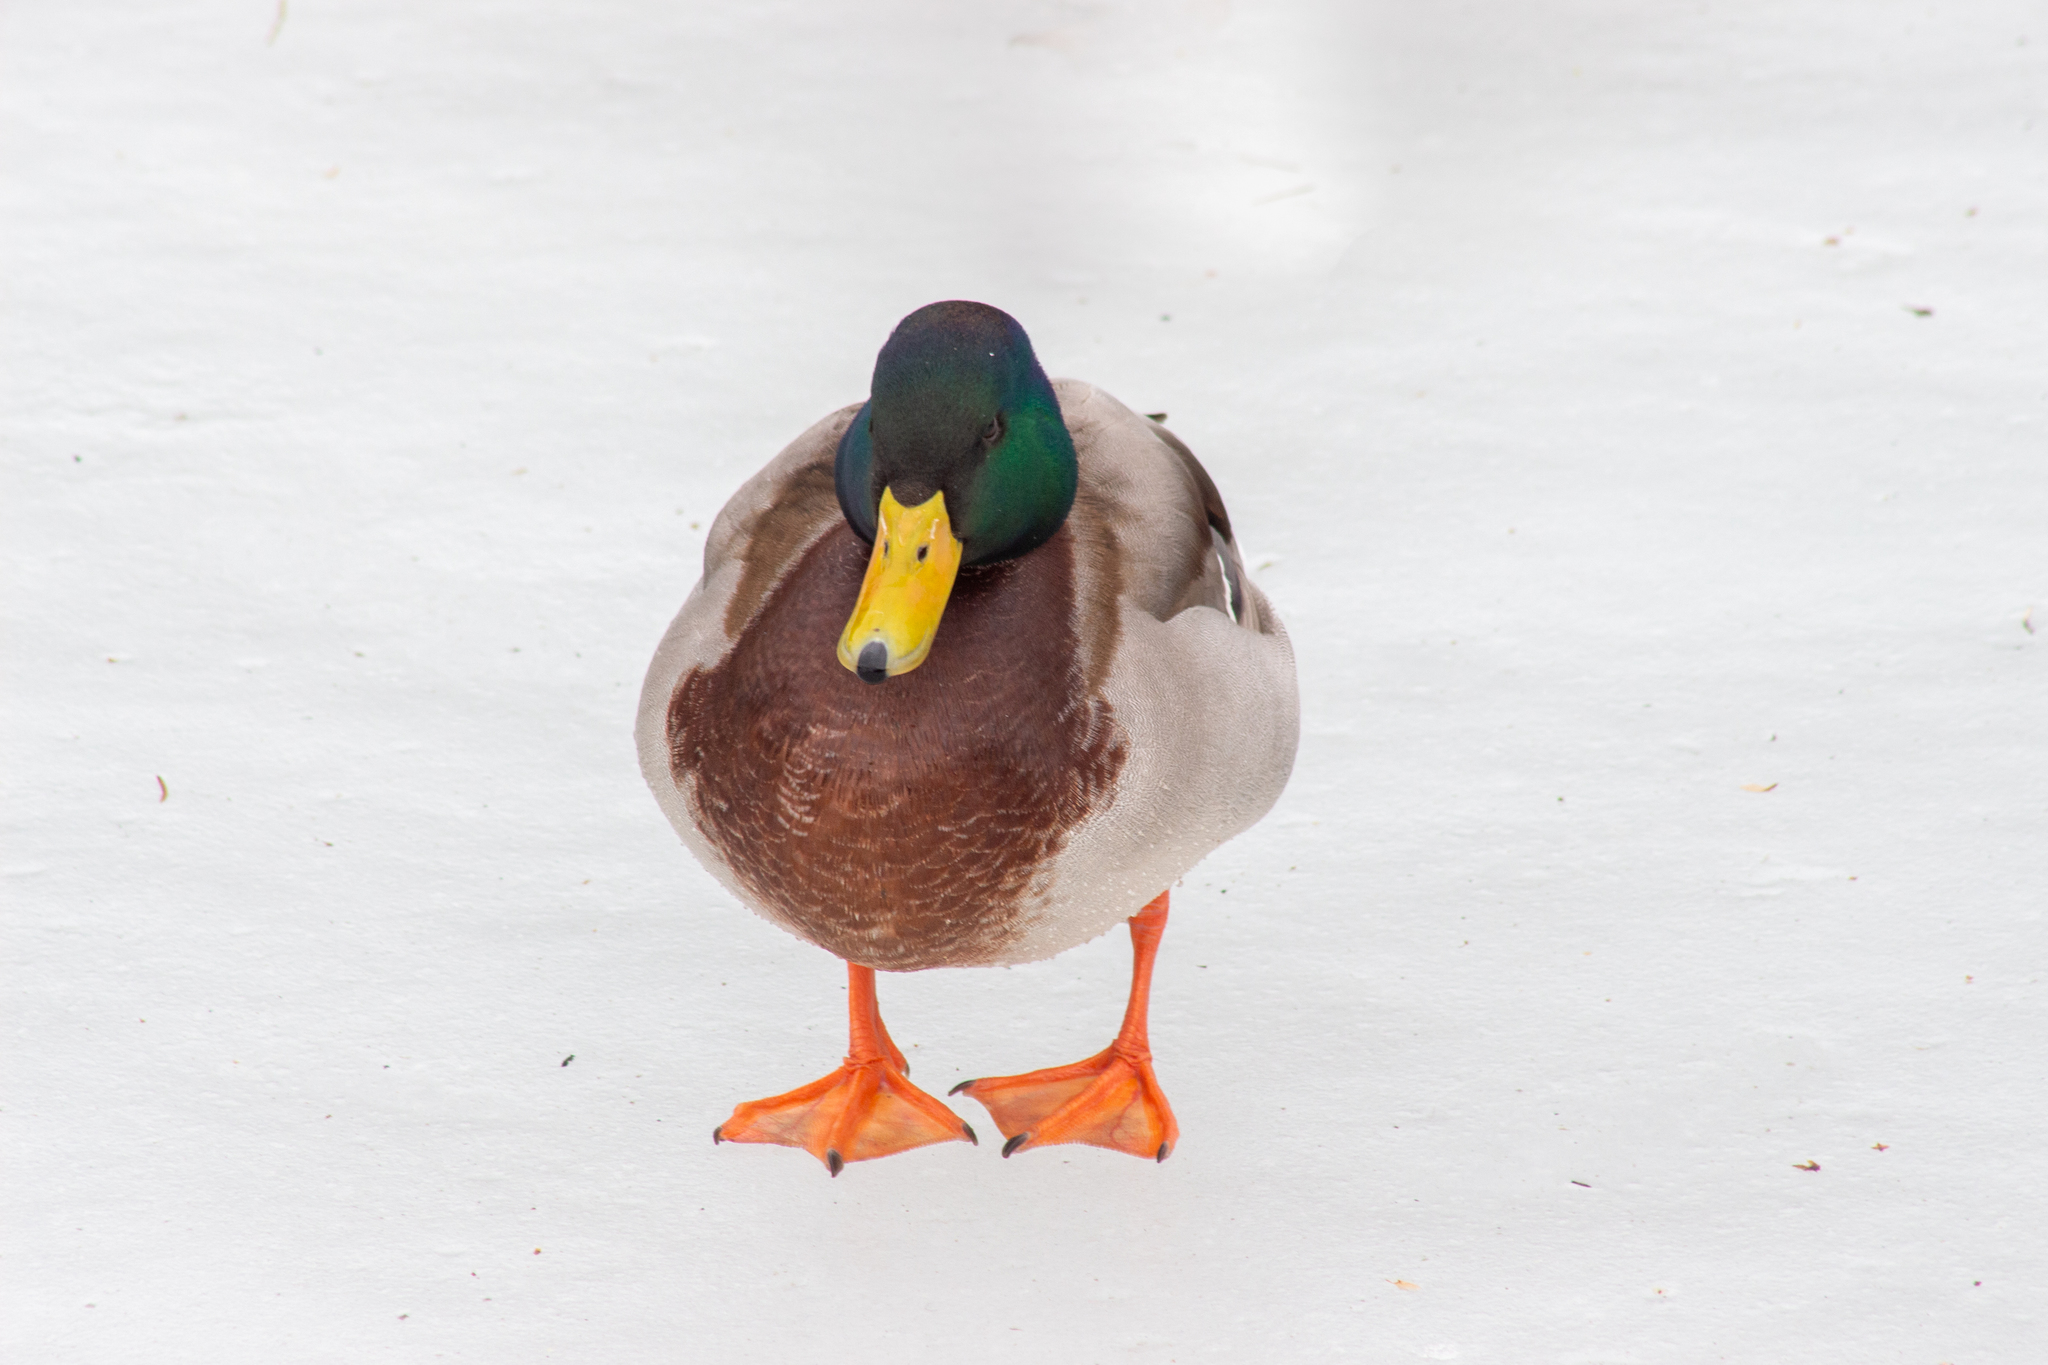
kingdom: Animalia
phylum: Chordata
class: Aves
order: Anseriformes
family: Anatidae
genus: Anas
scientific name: Anas platyrhynchos
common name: Mallard
